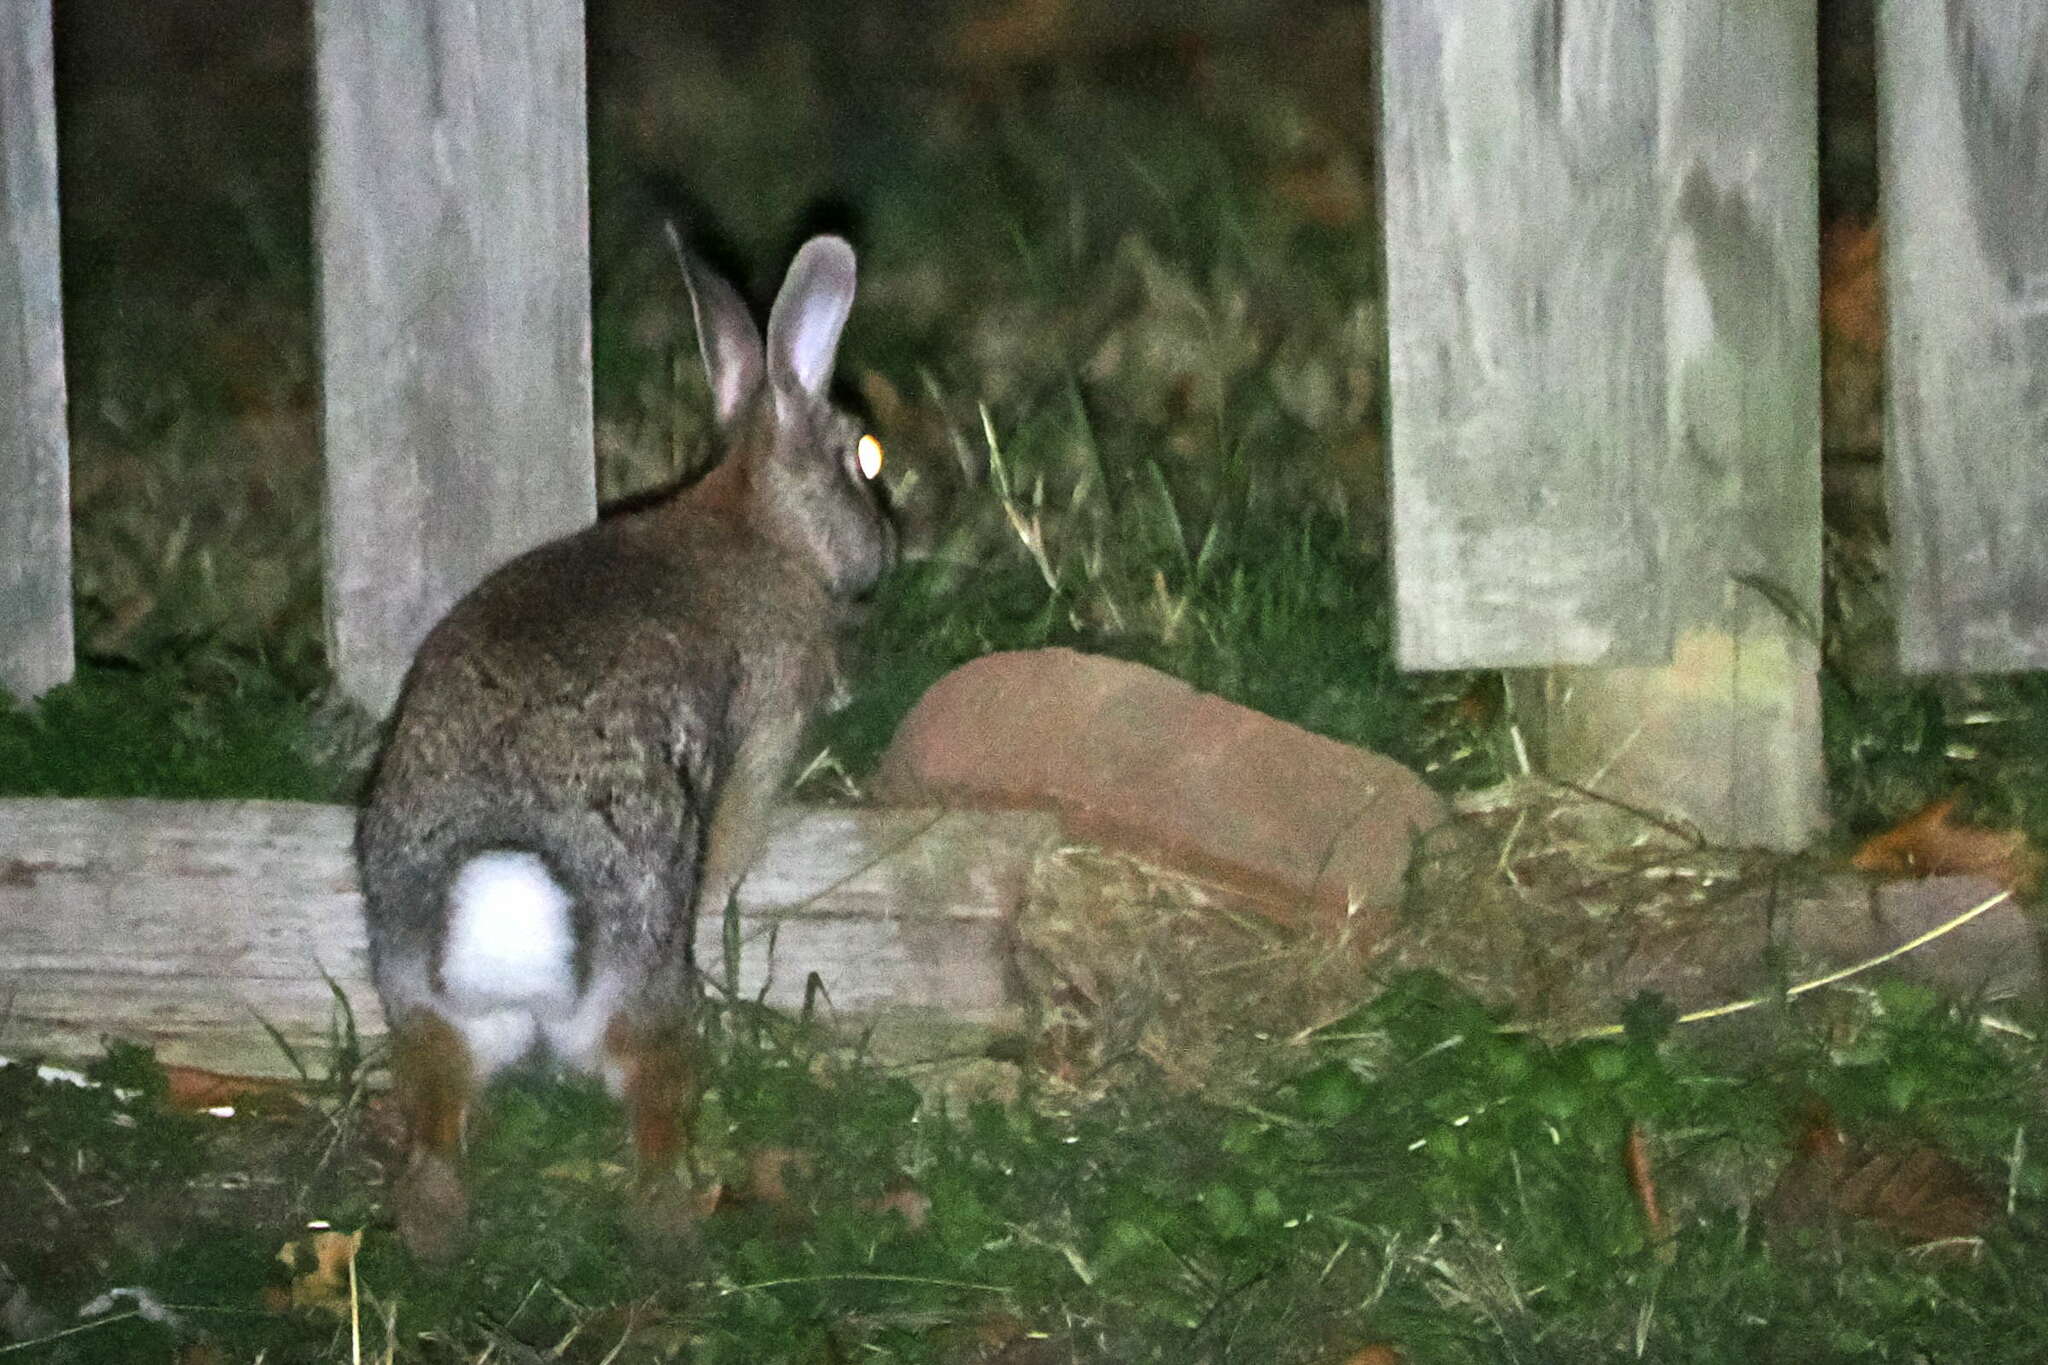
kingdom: Animalia
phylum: Chordata
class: Mammalia
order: Lagomorpha
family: Leporidae
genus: Sylvilagus
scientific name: Sylvilagus floridanus
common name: Eastern cottontail
